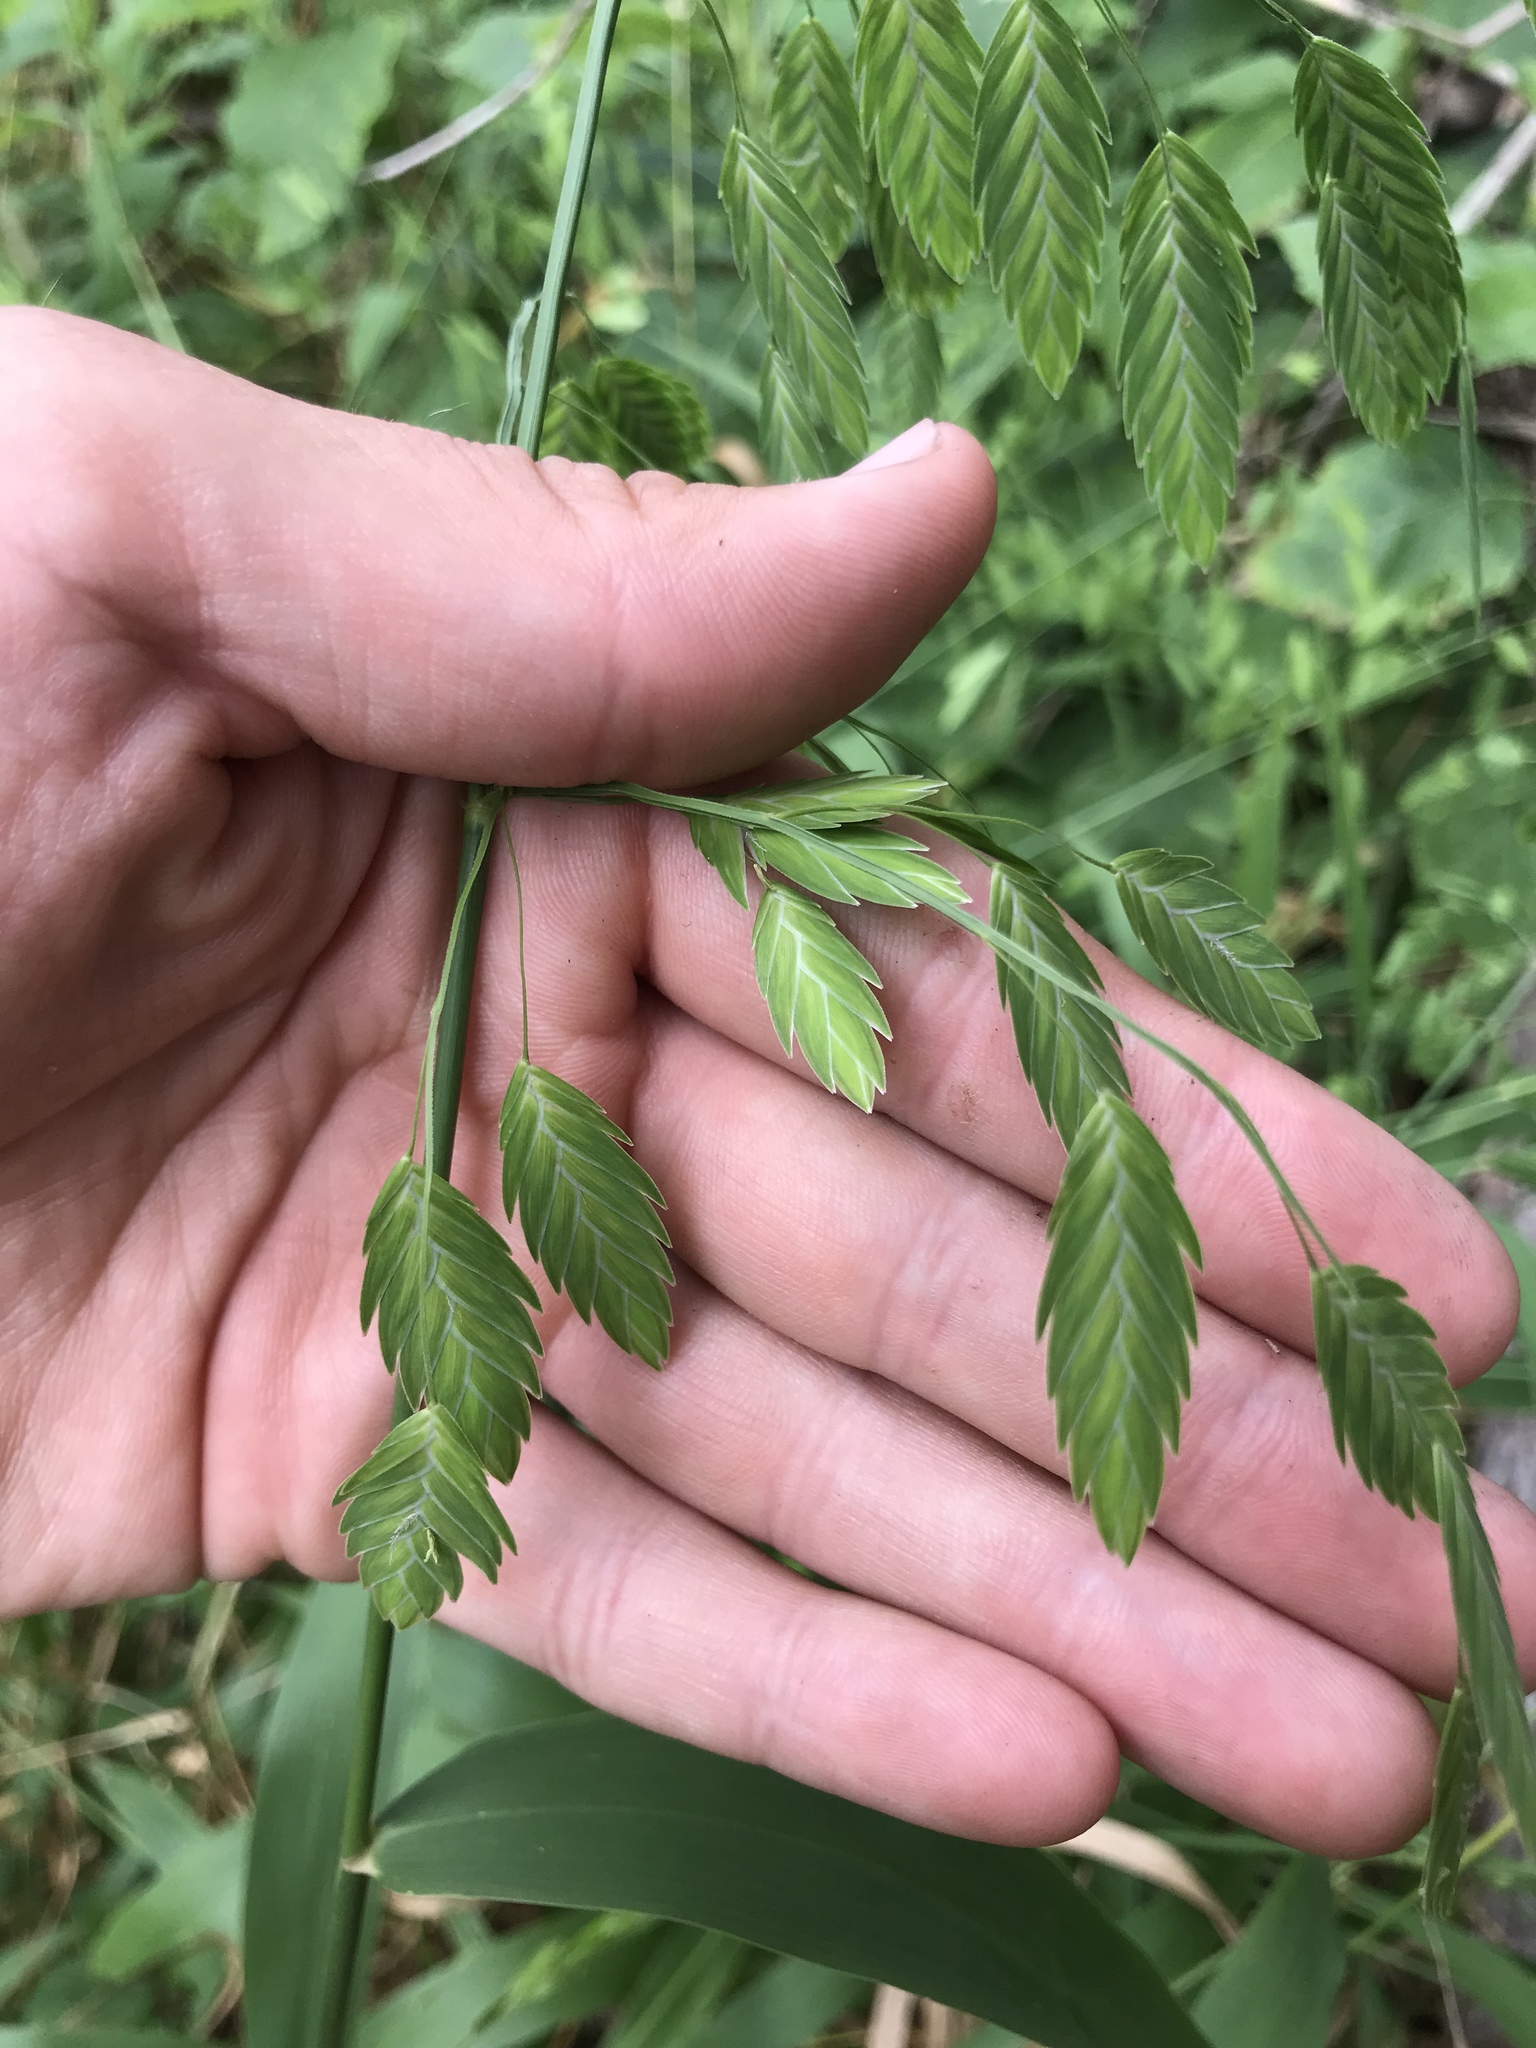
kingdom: Plantae
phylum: Tracheophyta
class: Liliopsida
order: Poales
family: Poaceae
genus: Chasmanthium
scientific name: Chasmanthium latifolium
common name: Broad-leaved chasmanthium
